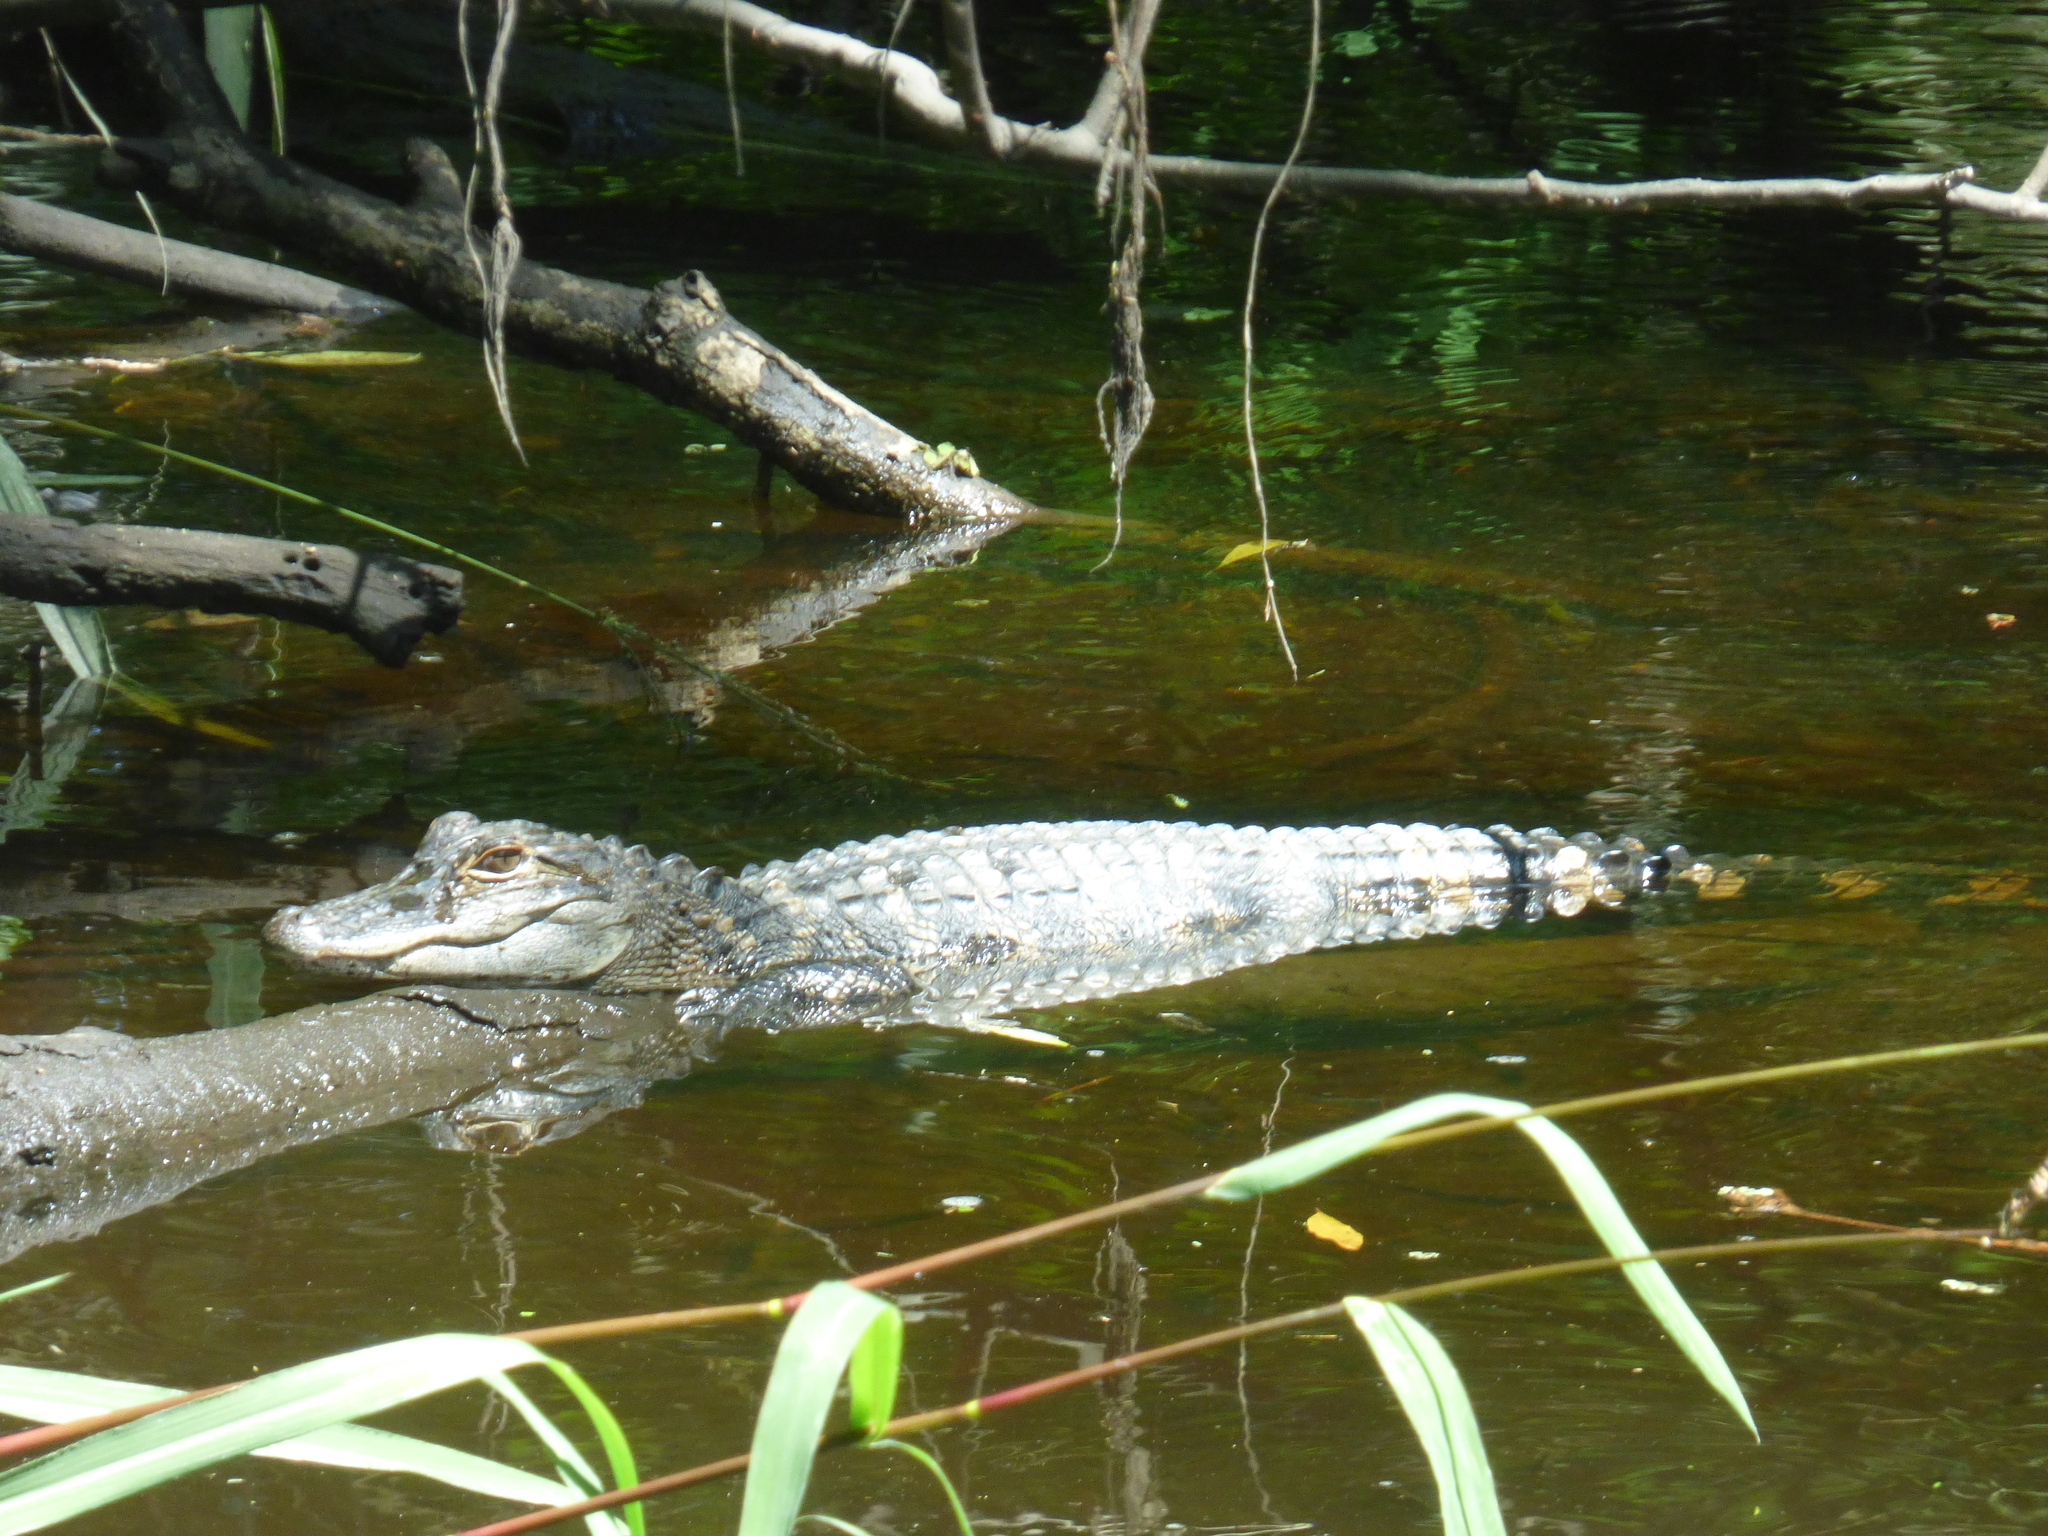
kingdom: Animalia
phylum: Chordata
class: Crocodylia
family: Alligatoridae
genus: Alligator
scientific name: Alligator mississippiensis
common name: American alligator
